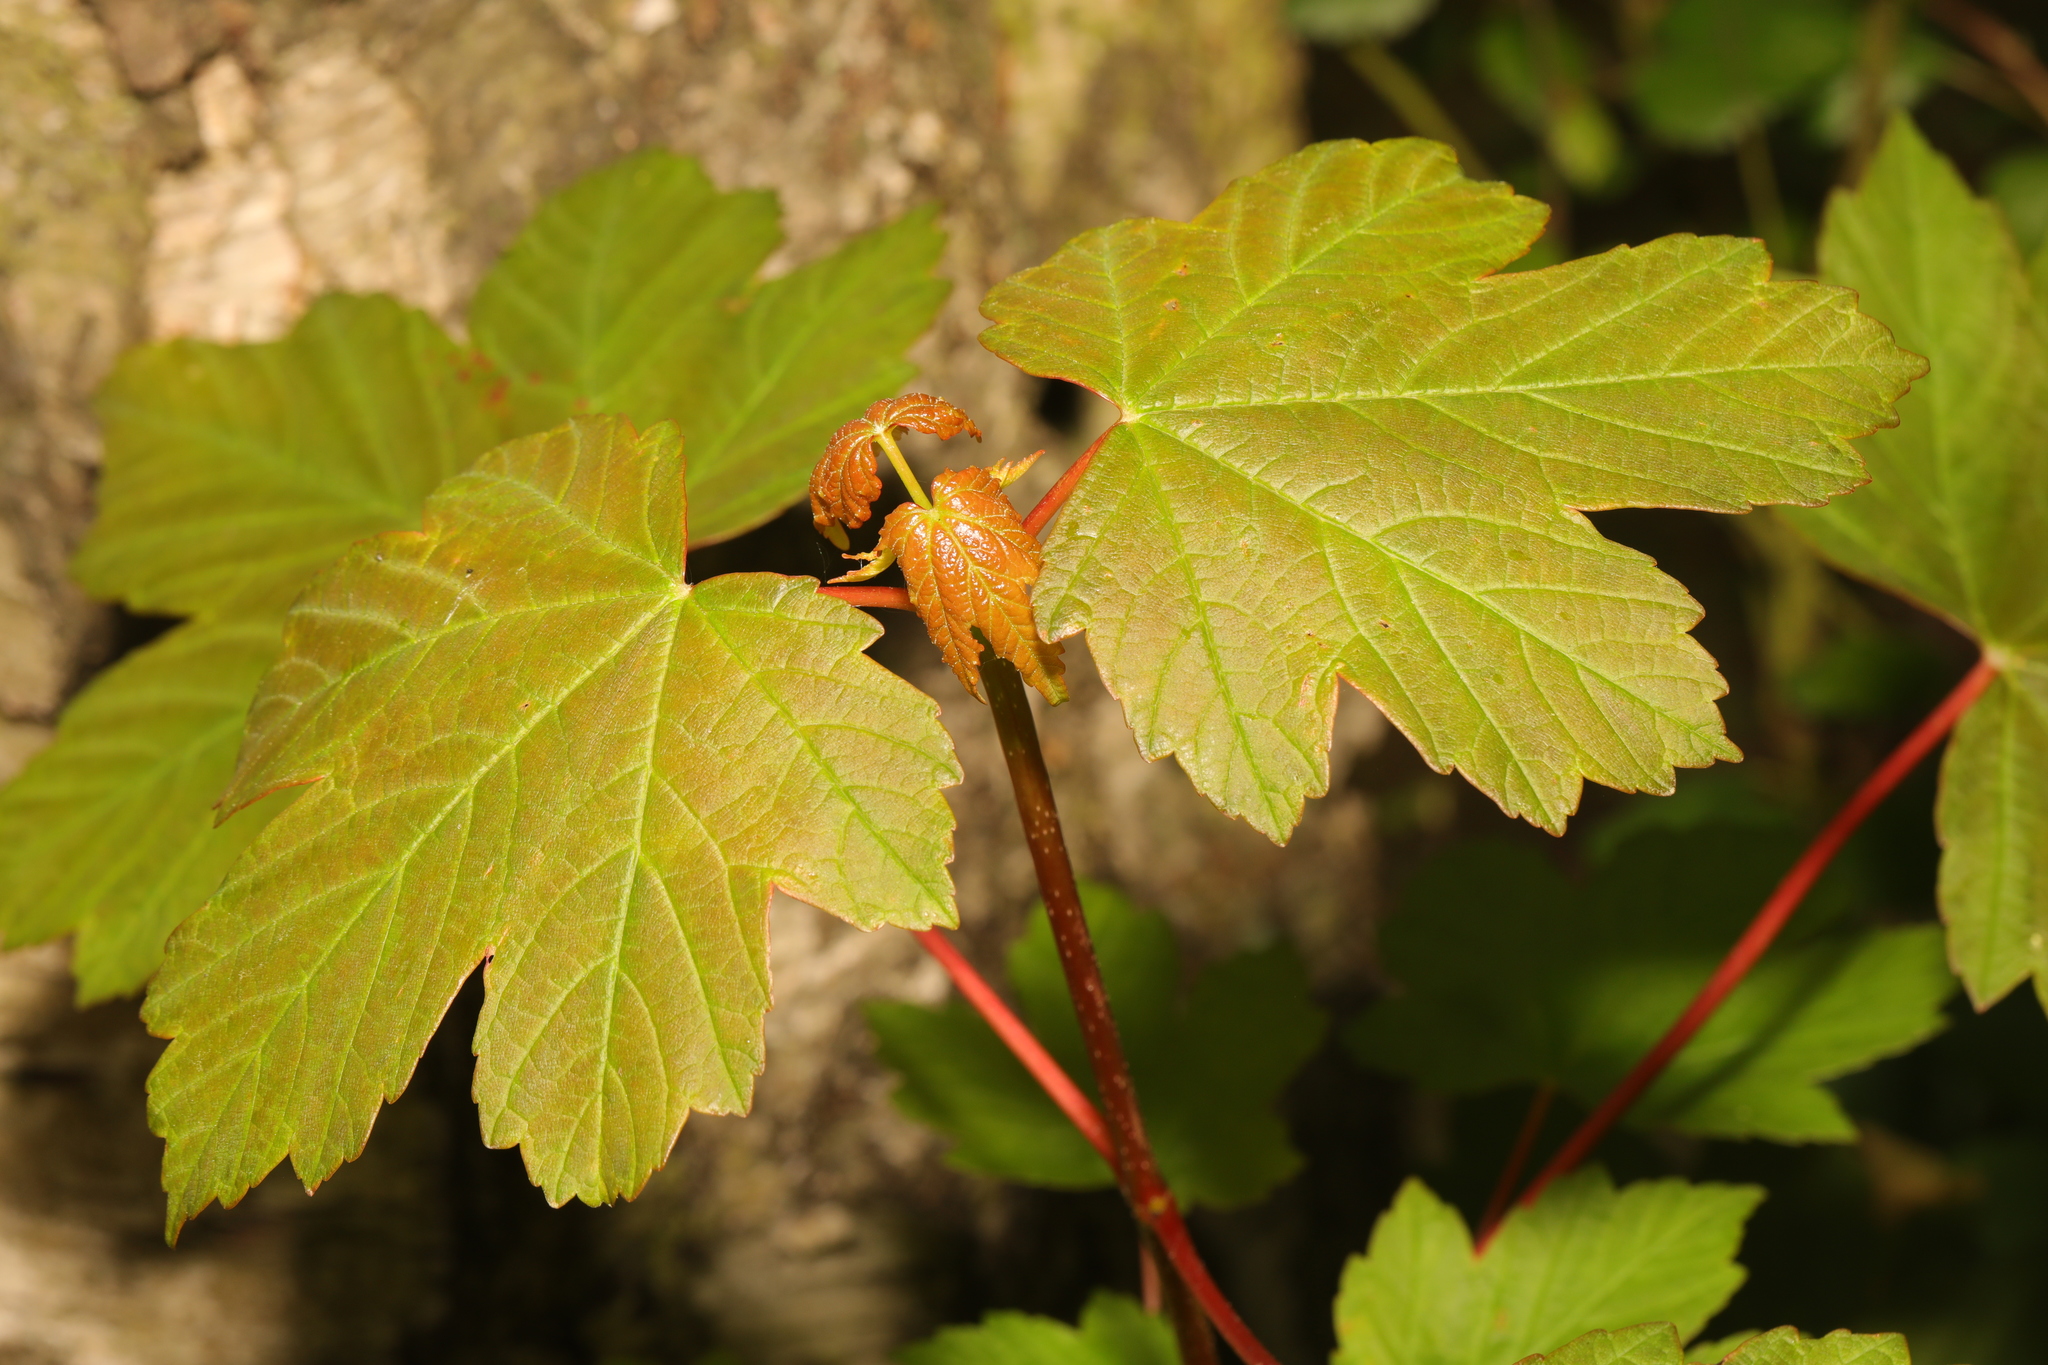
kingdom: Plantae
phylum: Tracheophyta
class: Magnoliopsida
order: Sapindales
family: Sapindaceae
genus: Acer
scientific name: Acer pseudoplatanus
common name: Sycamore
